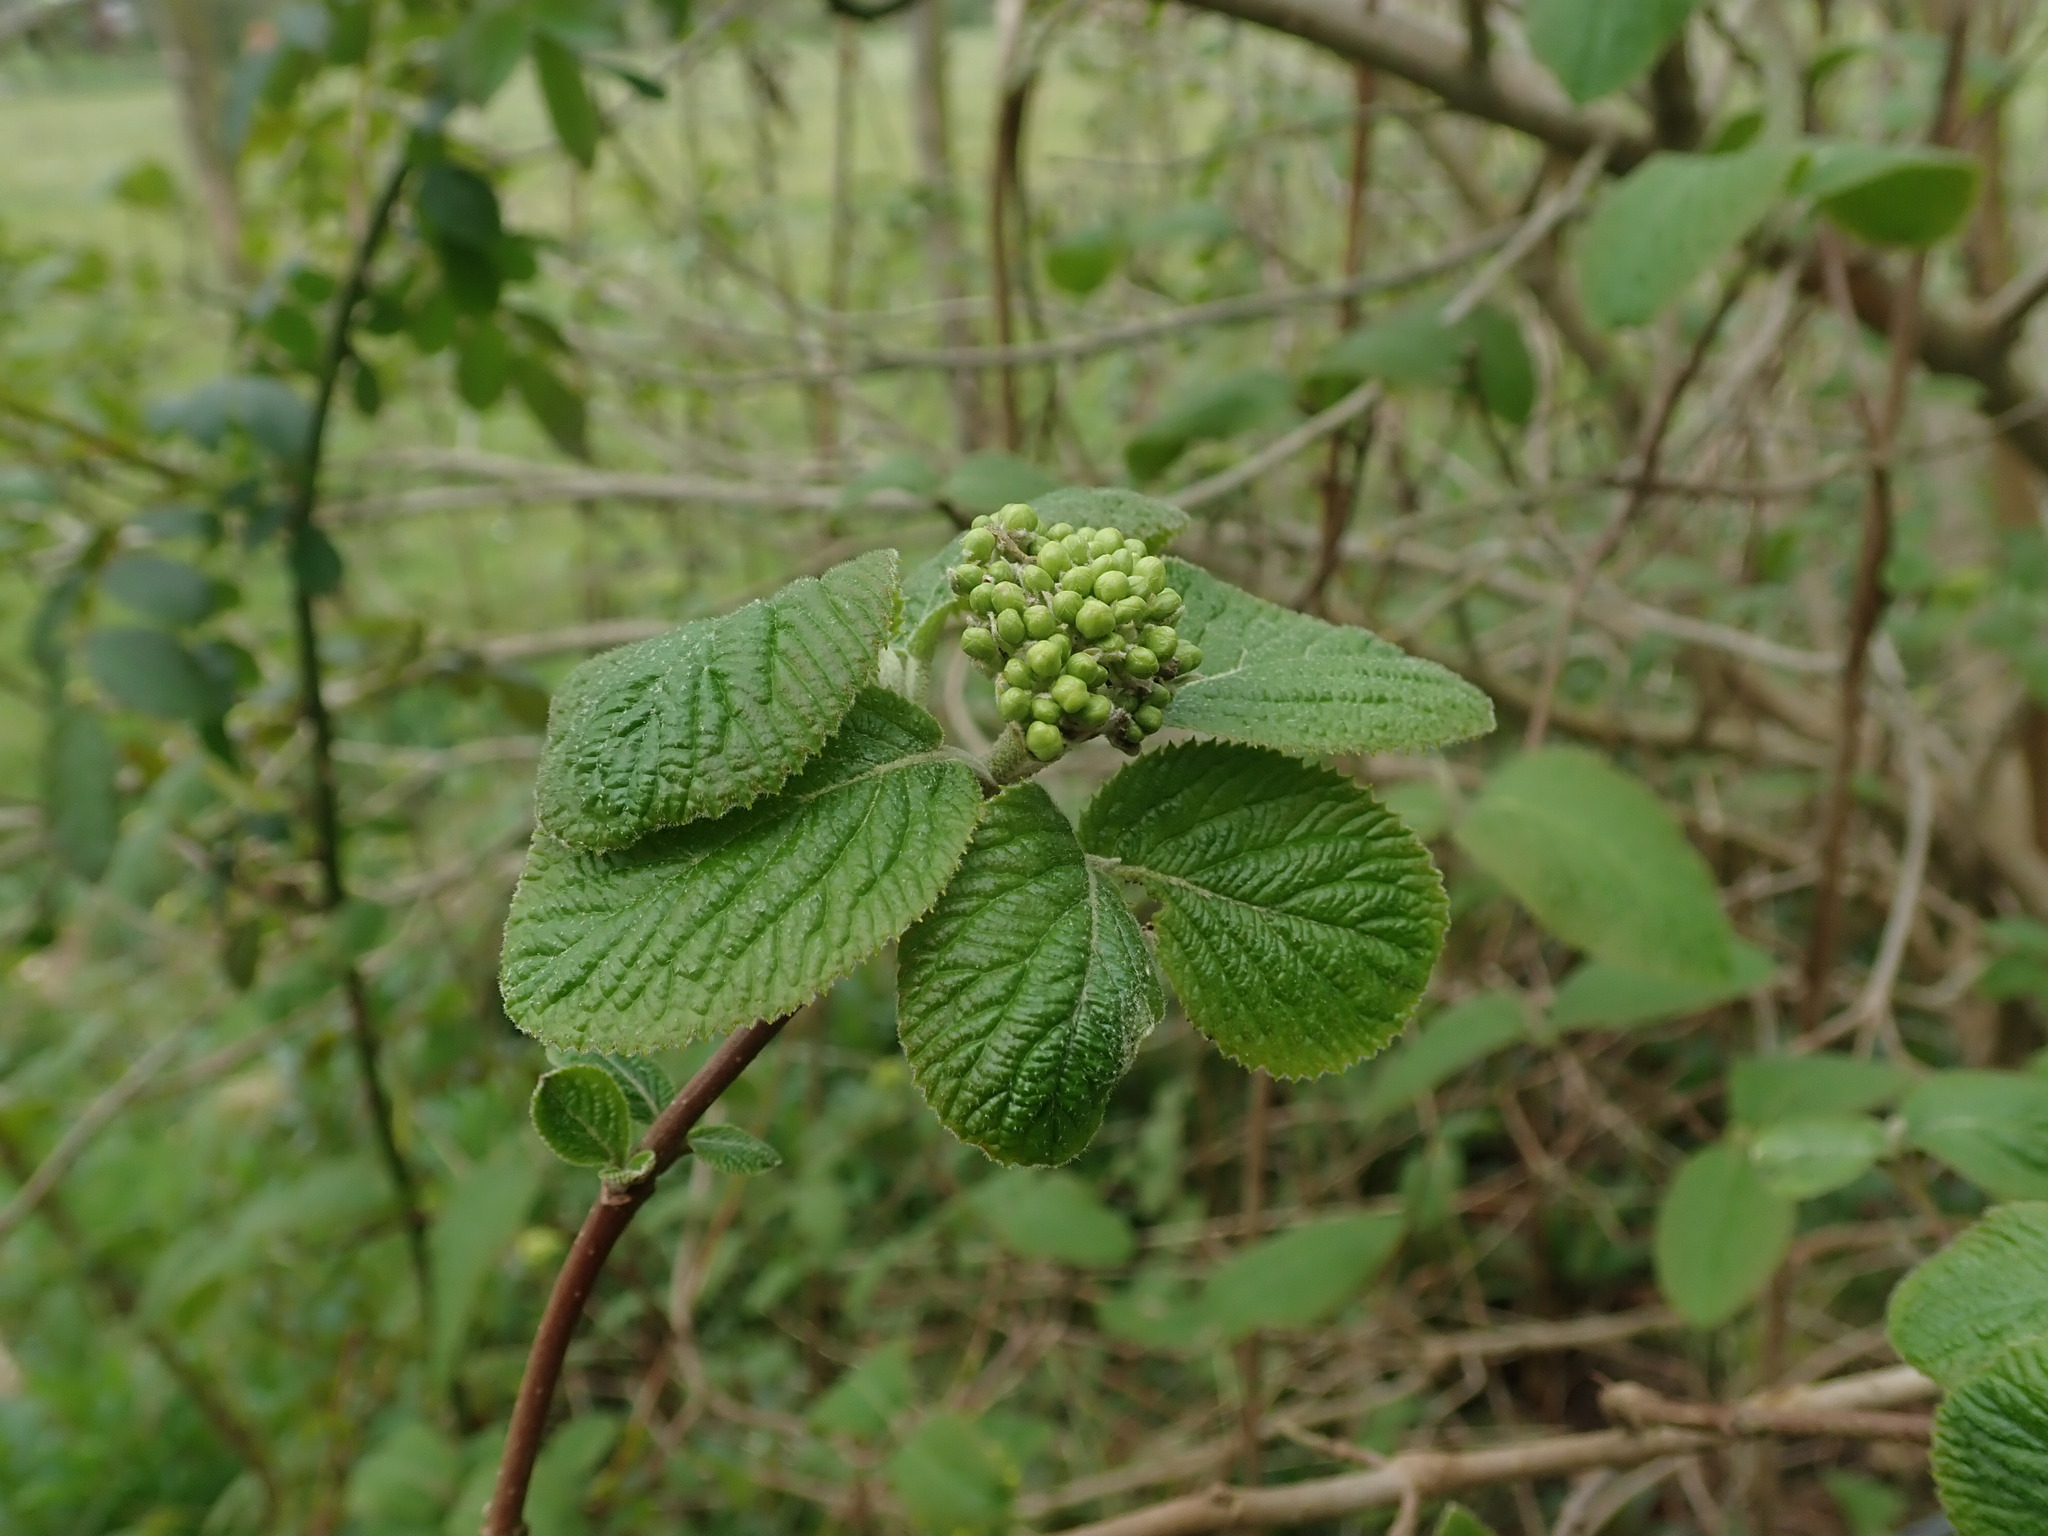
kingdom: Plantae
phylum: Tracheophyta
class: Magnoliopsida
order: Dipsacales
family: Viburnaceae
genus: Viburnum
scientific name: Viburnum lantana
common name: Wayfaring tree
